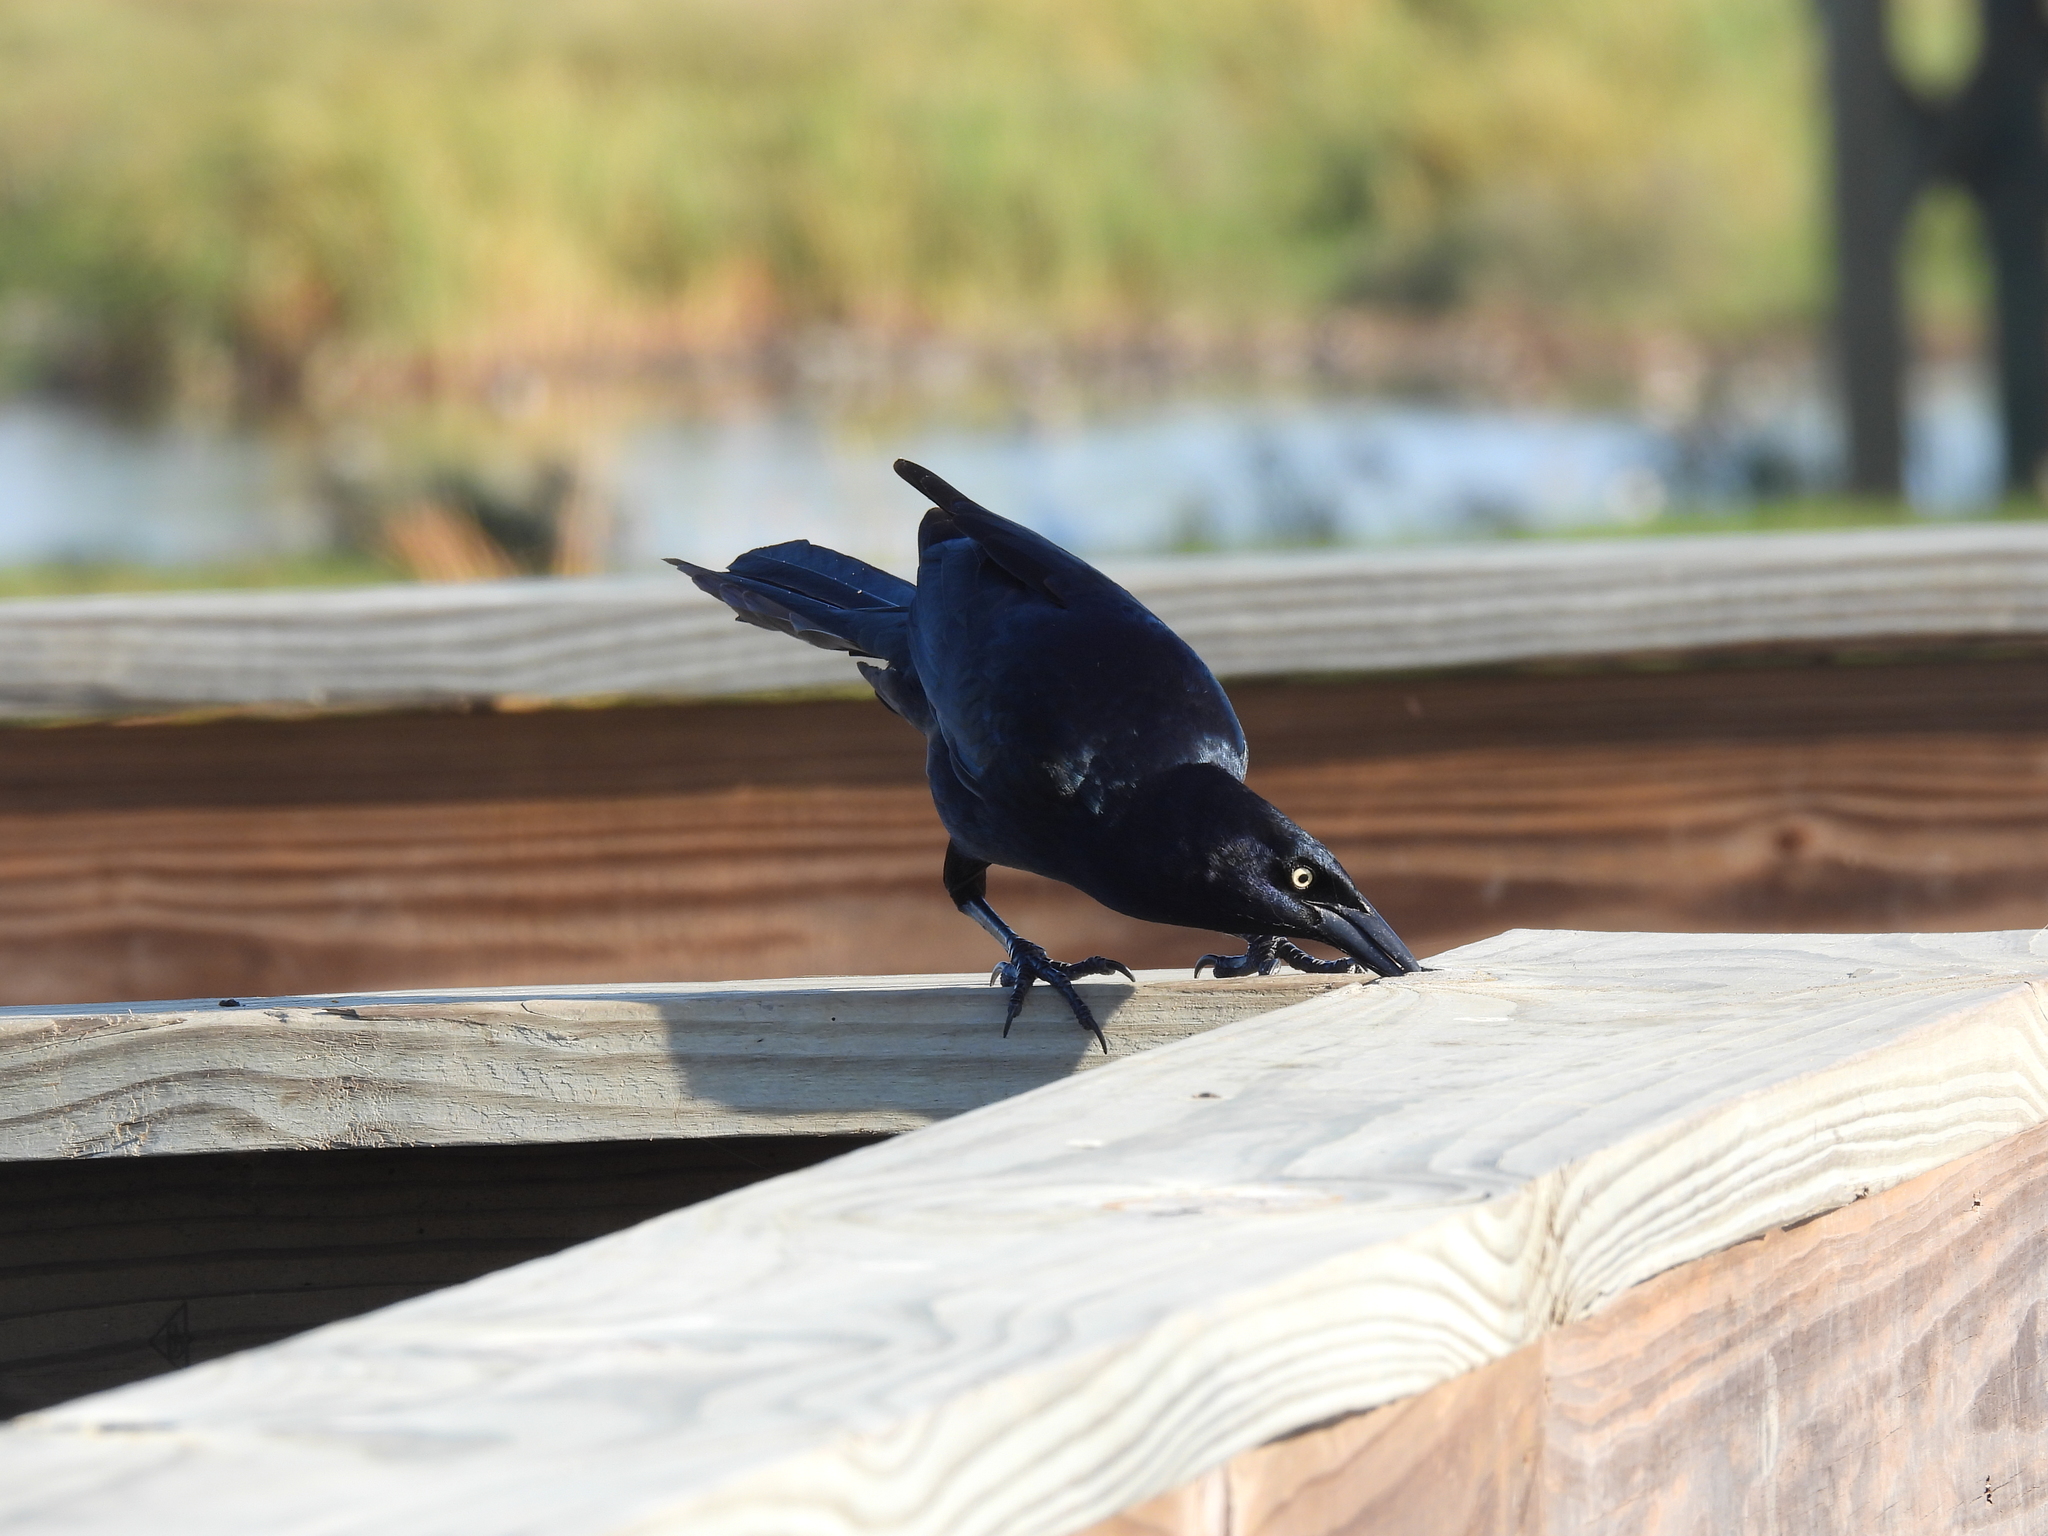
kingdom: Animalia
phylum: Chordata
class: Aves
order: Passeriformes
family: Icteridae
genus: Quiscalus
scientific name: Quiscalus mexicanus
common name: Great-tailed grackle
